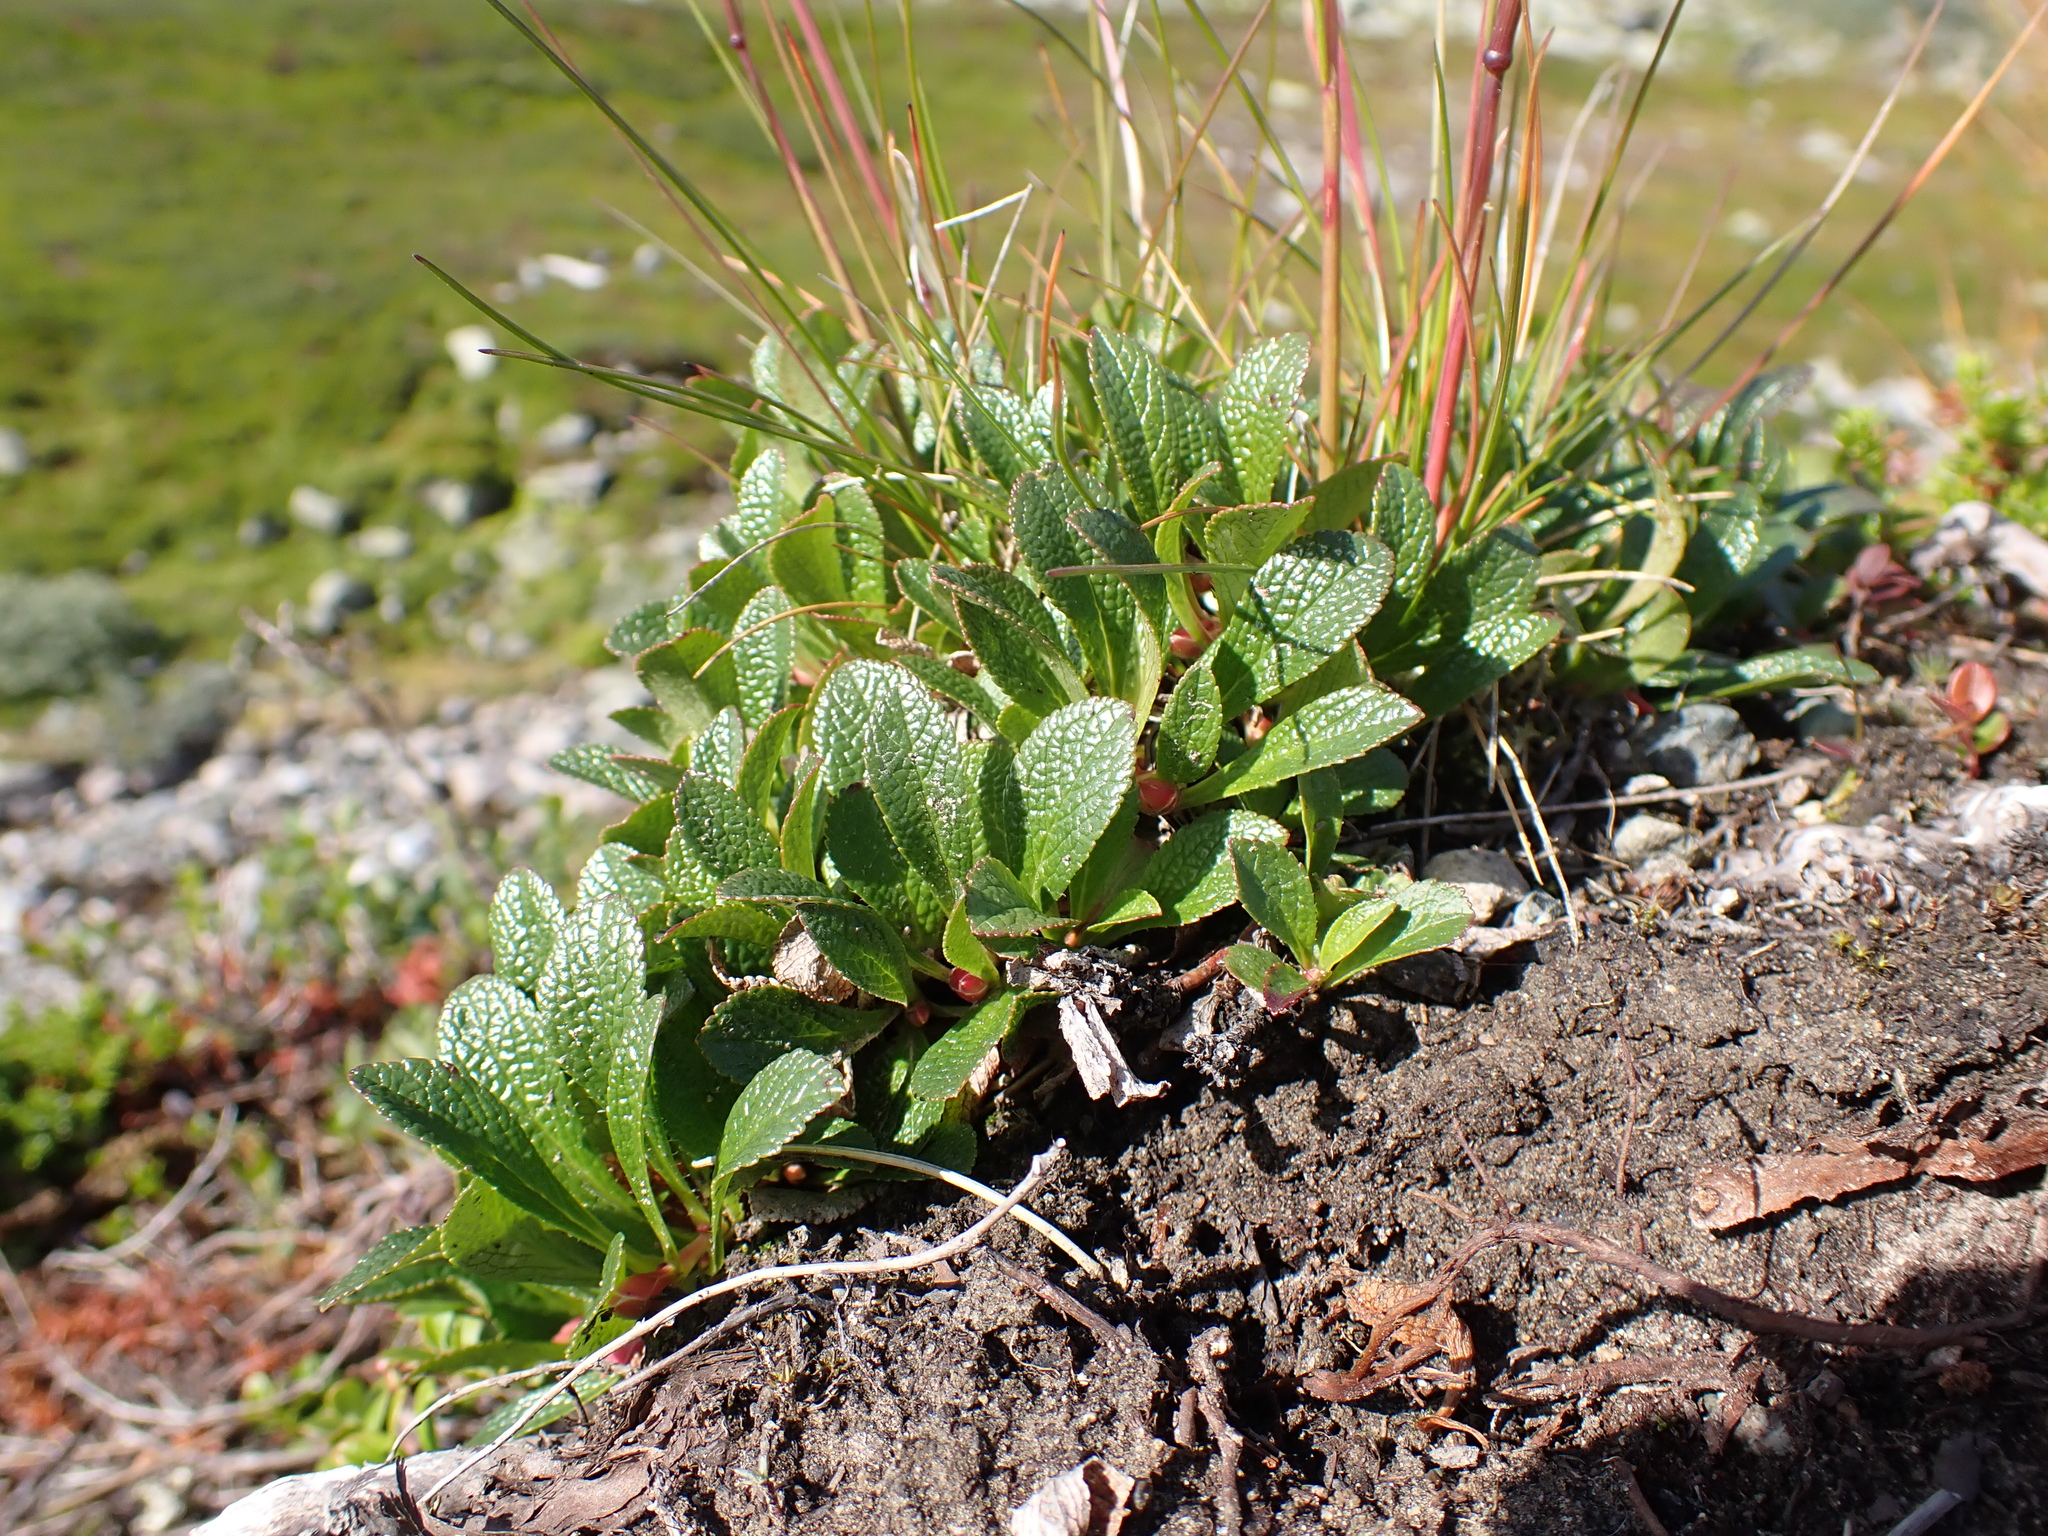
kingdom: Plantae
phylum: Tracheophyta
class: Magnoliopsida
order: Ericales
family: Ericaceae
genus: Arctostaphylos
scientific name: Arctostaphylos alpinus
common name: Alpine bearberry
